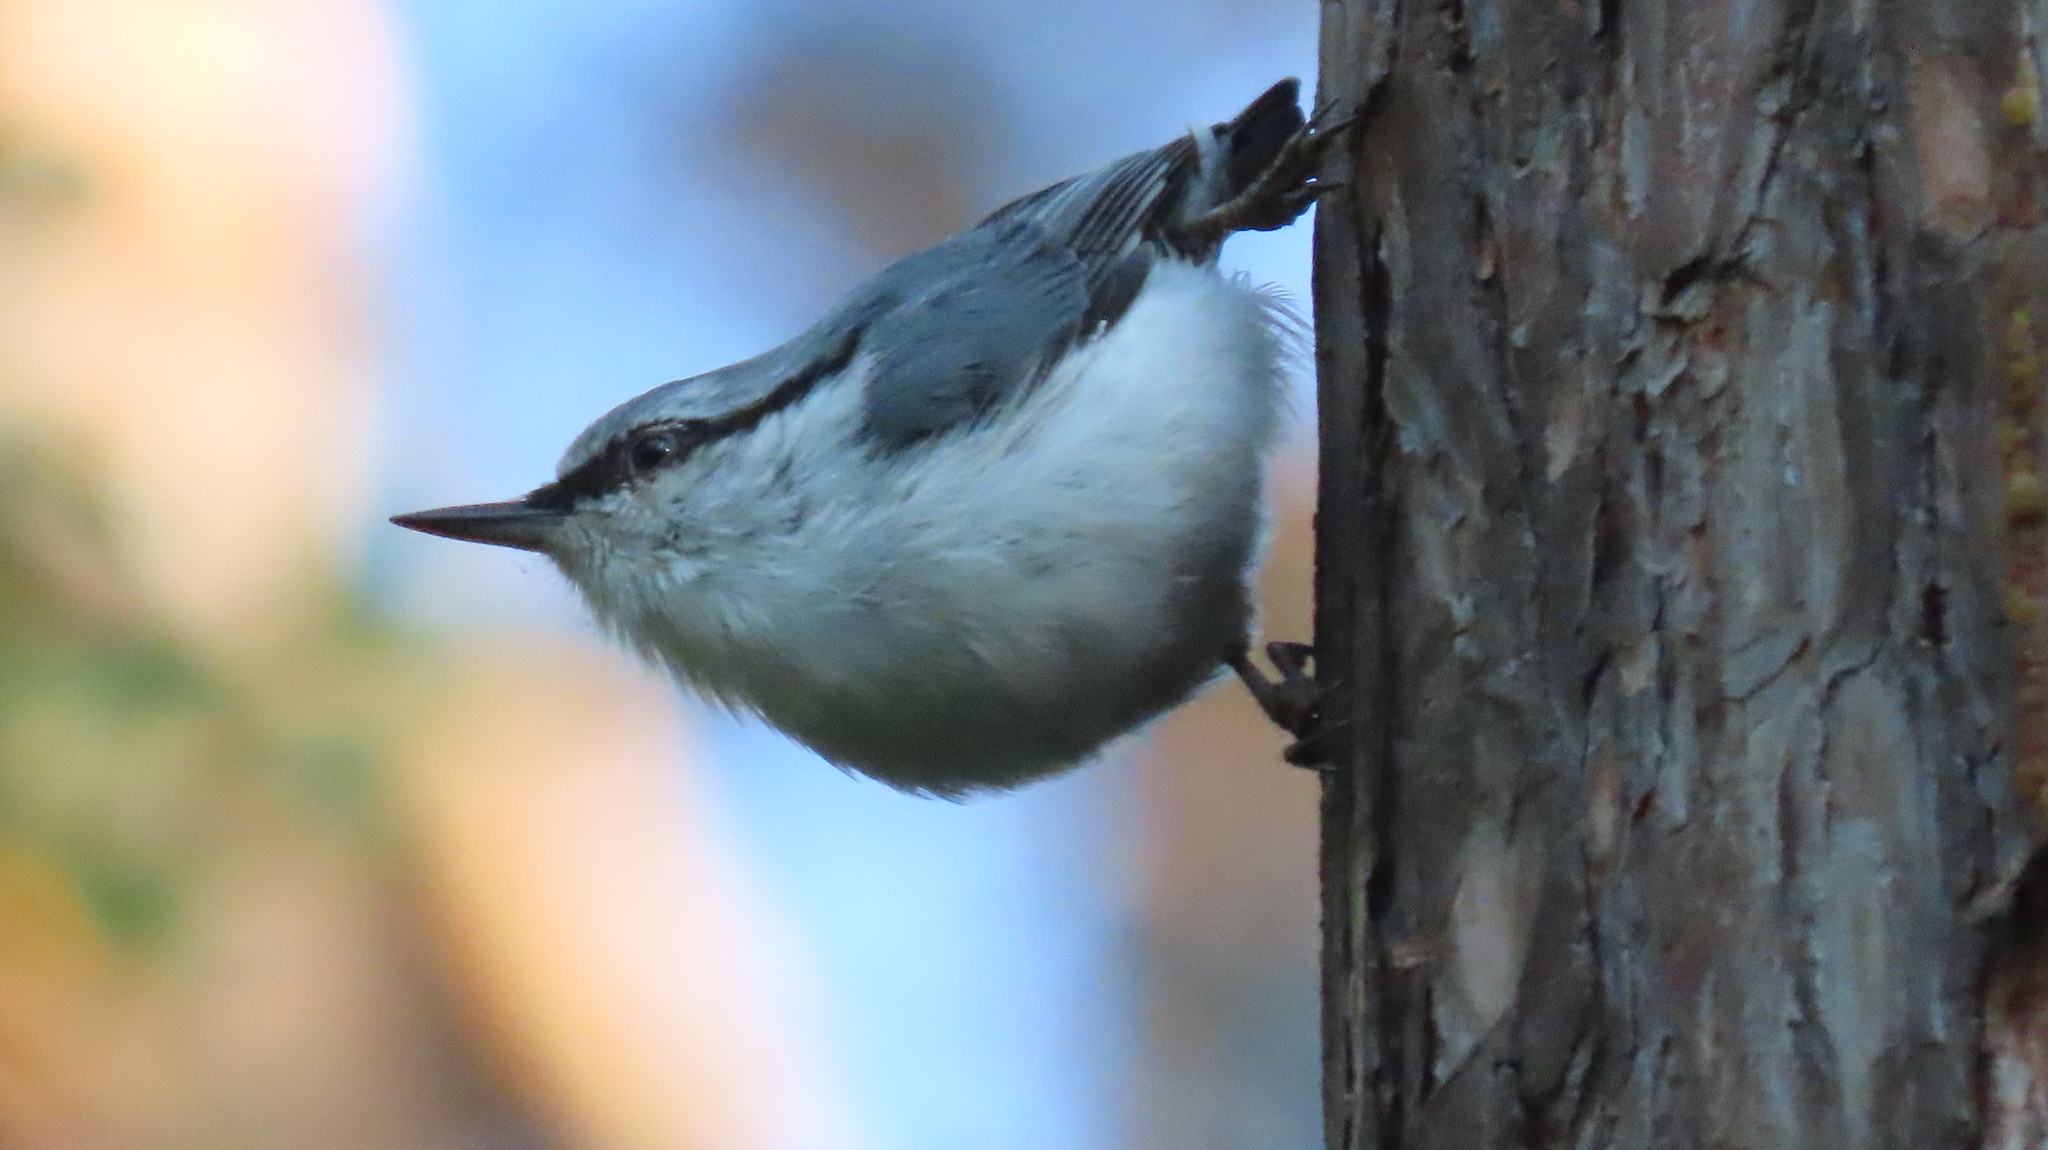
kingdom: Animalia
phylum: Chordata
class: Aves
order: Passeriformes
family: Sittidae
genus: Sitta
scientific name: Sitta europaea
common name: Eurasian nuthatch
